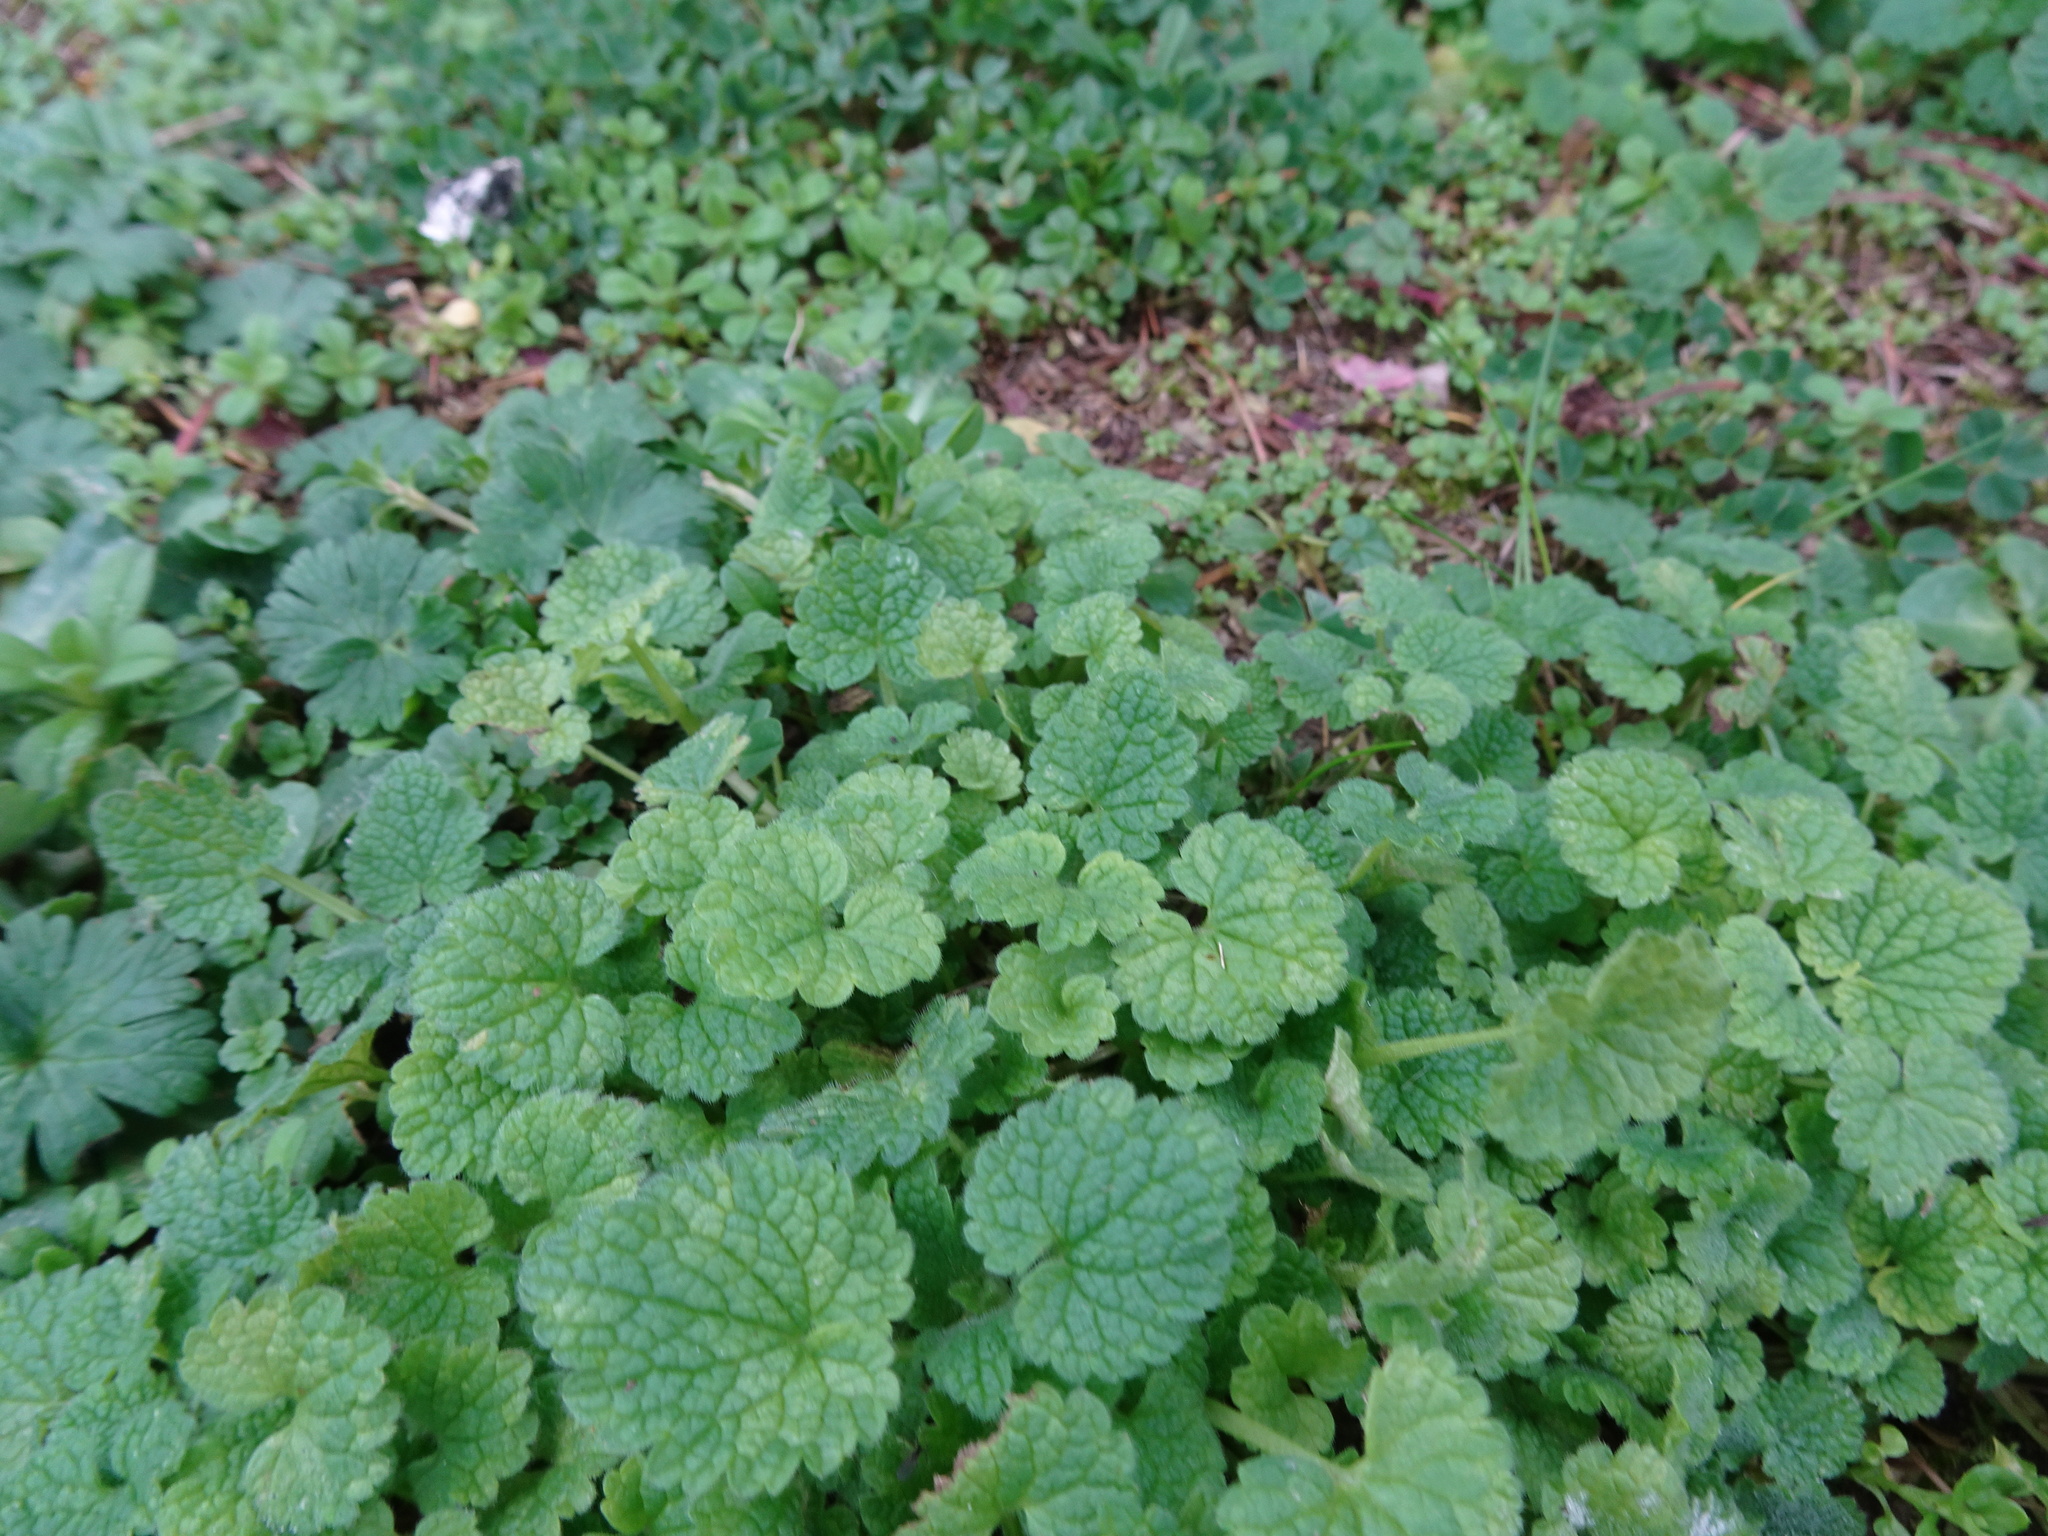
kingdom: Plantae
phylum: Tracheophyta
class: Magnoliopsida
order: Lamiales
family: Lamiaceae
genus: Glechoma
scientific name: Glechoma hederacea
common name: Ground ivy
